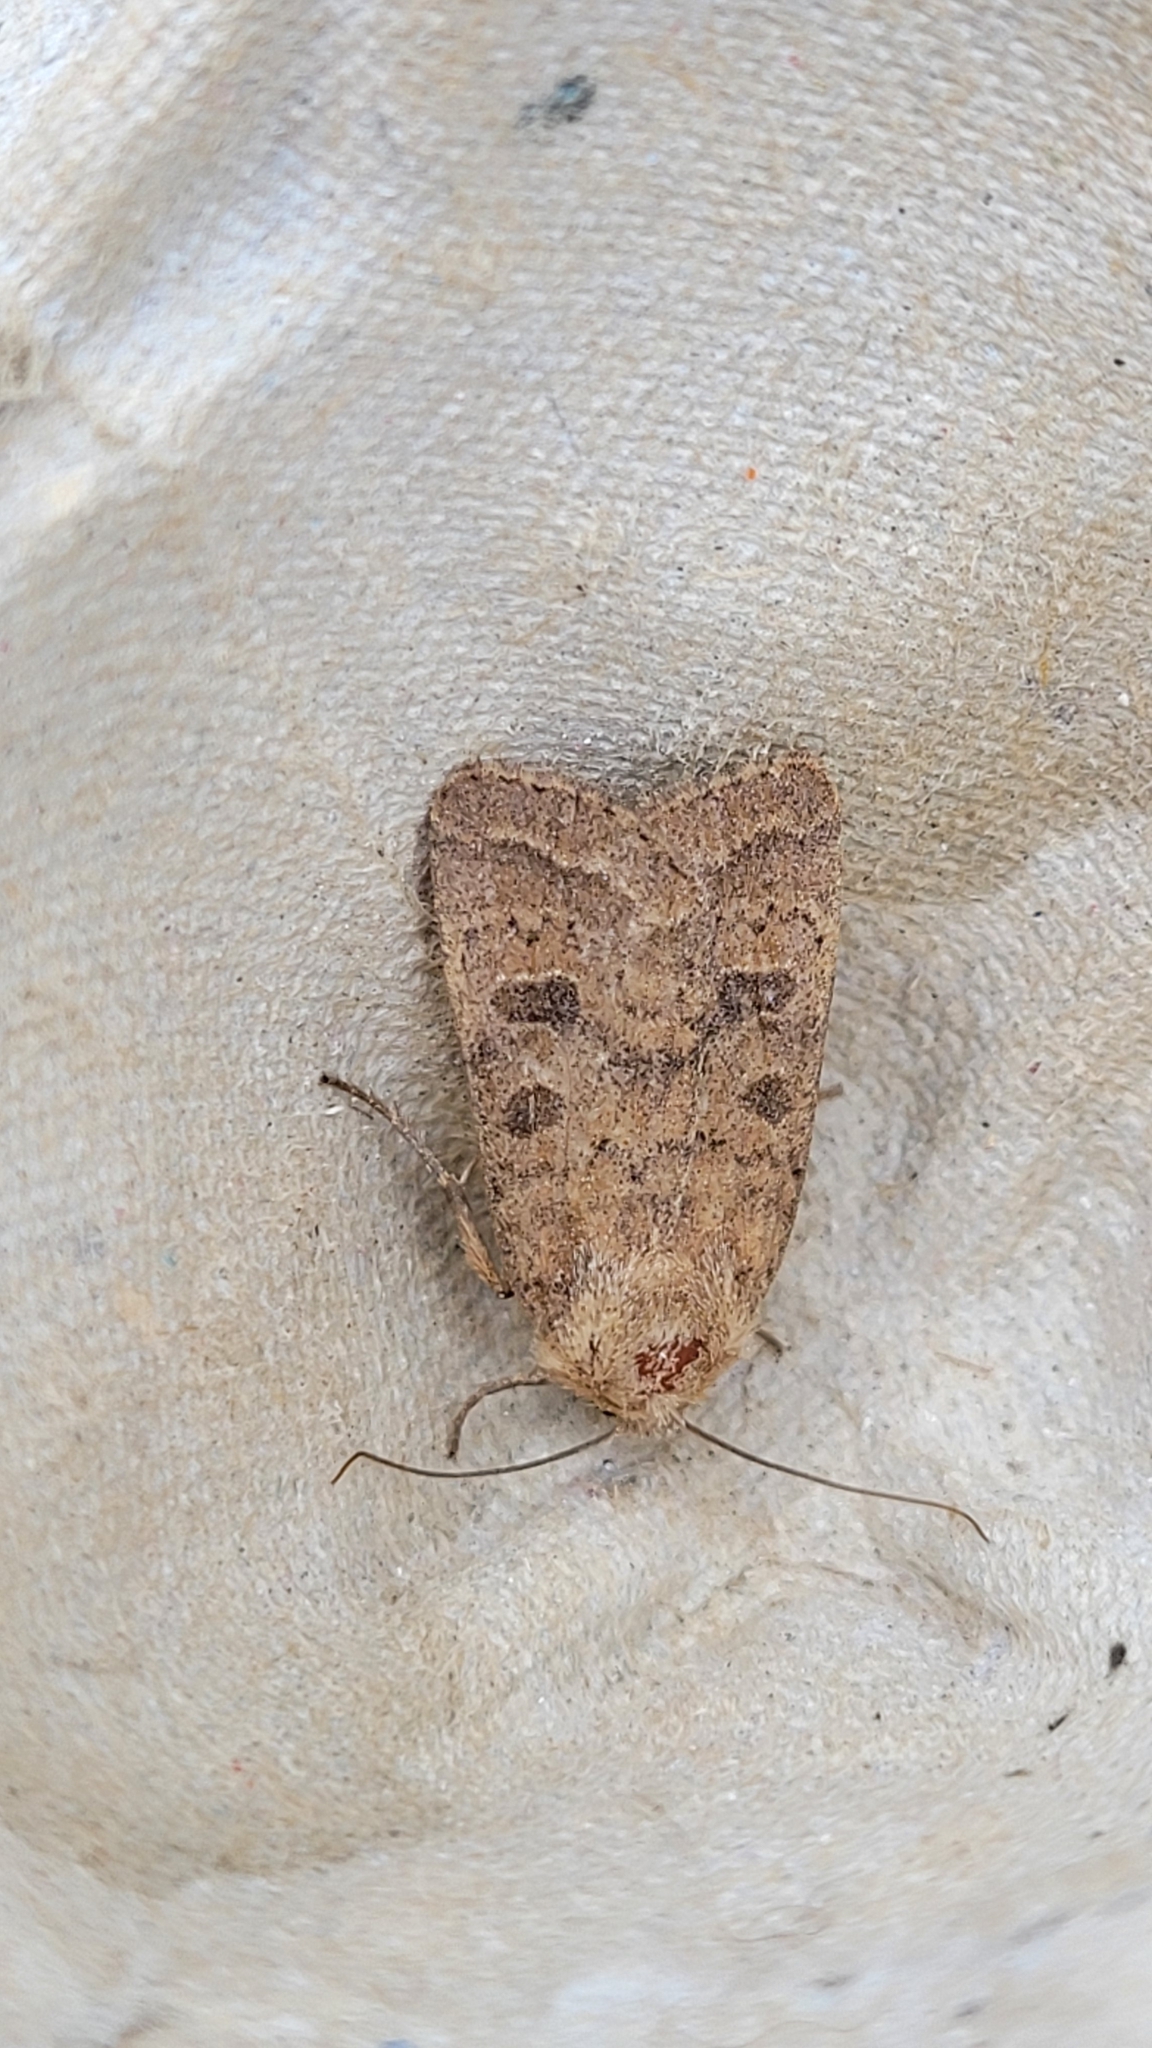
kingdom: Animalia
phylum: Arthropoda
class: Insecta
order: Lepidoptera
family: Noctuidae
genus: Hoplodrina
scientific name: Hoplodrina octogenaria
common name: Uncertain
